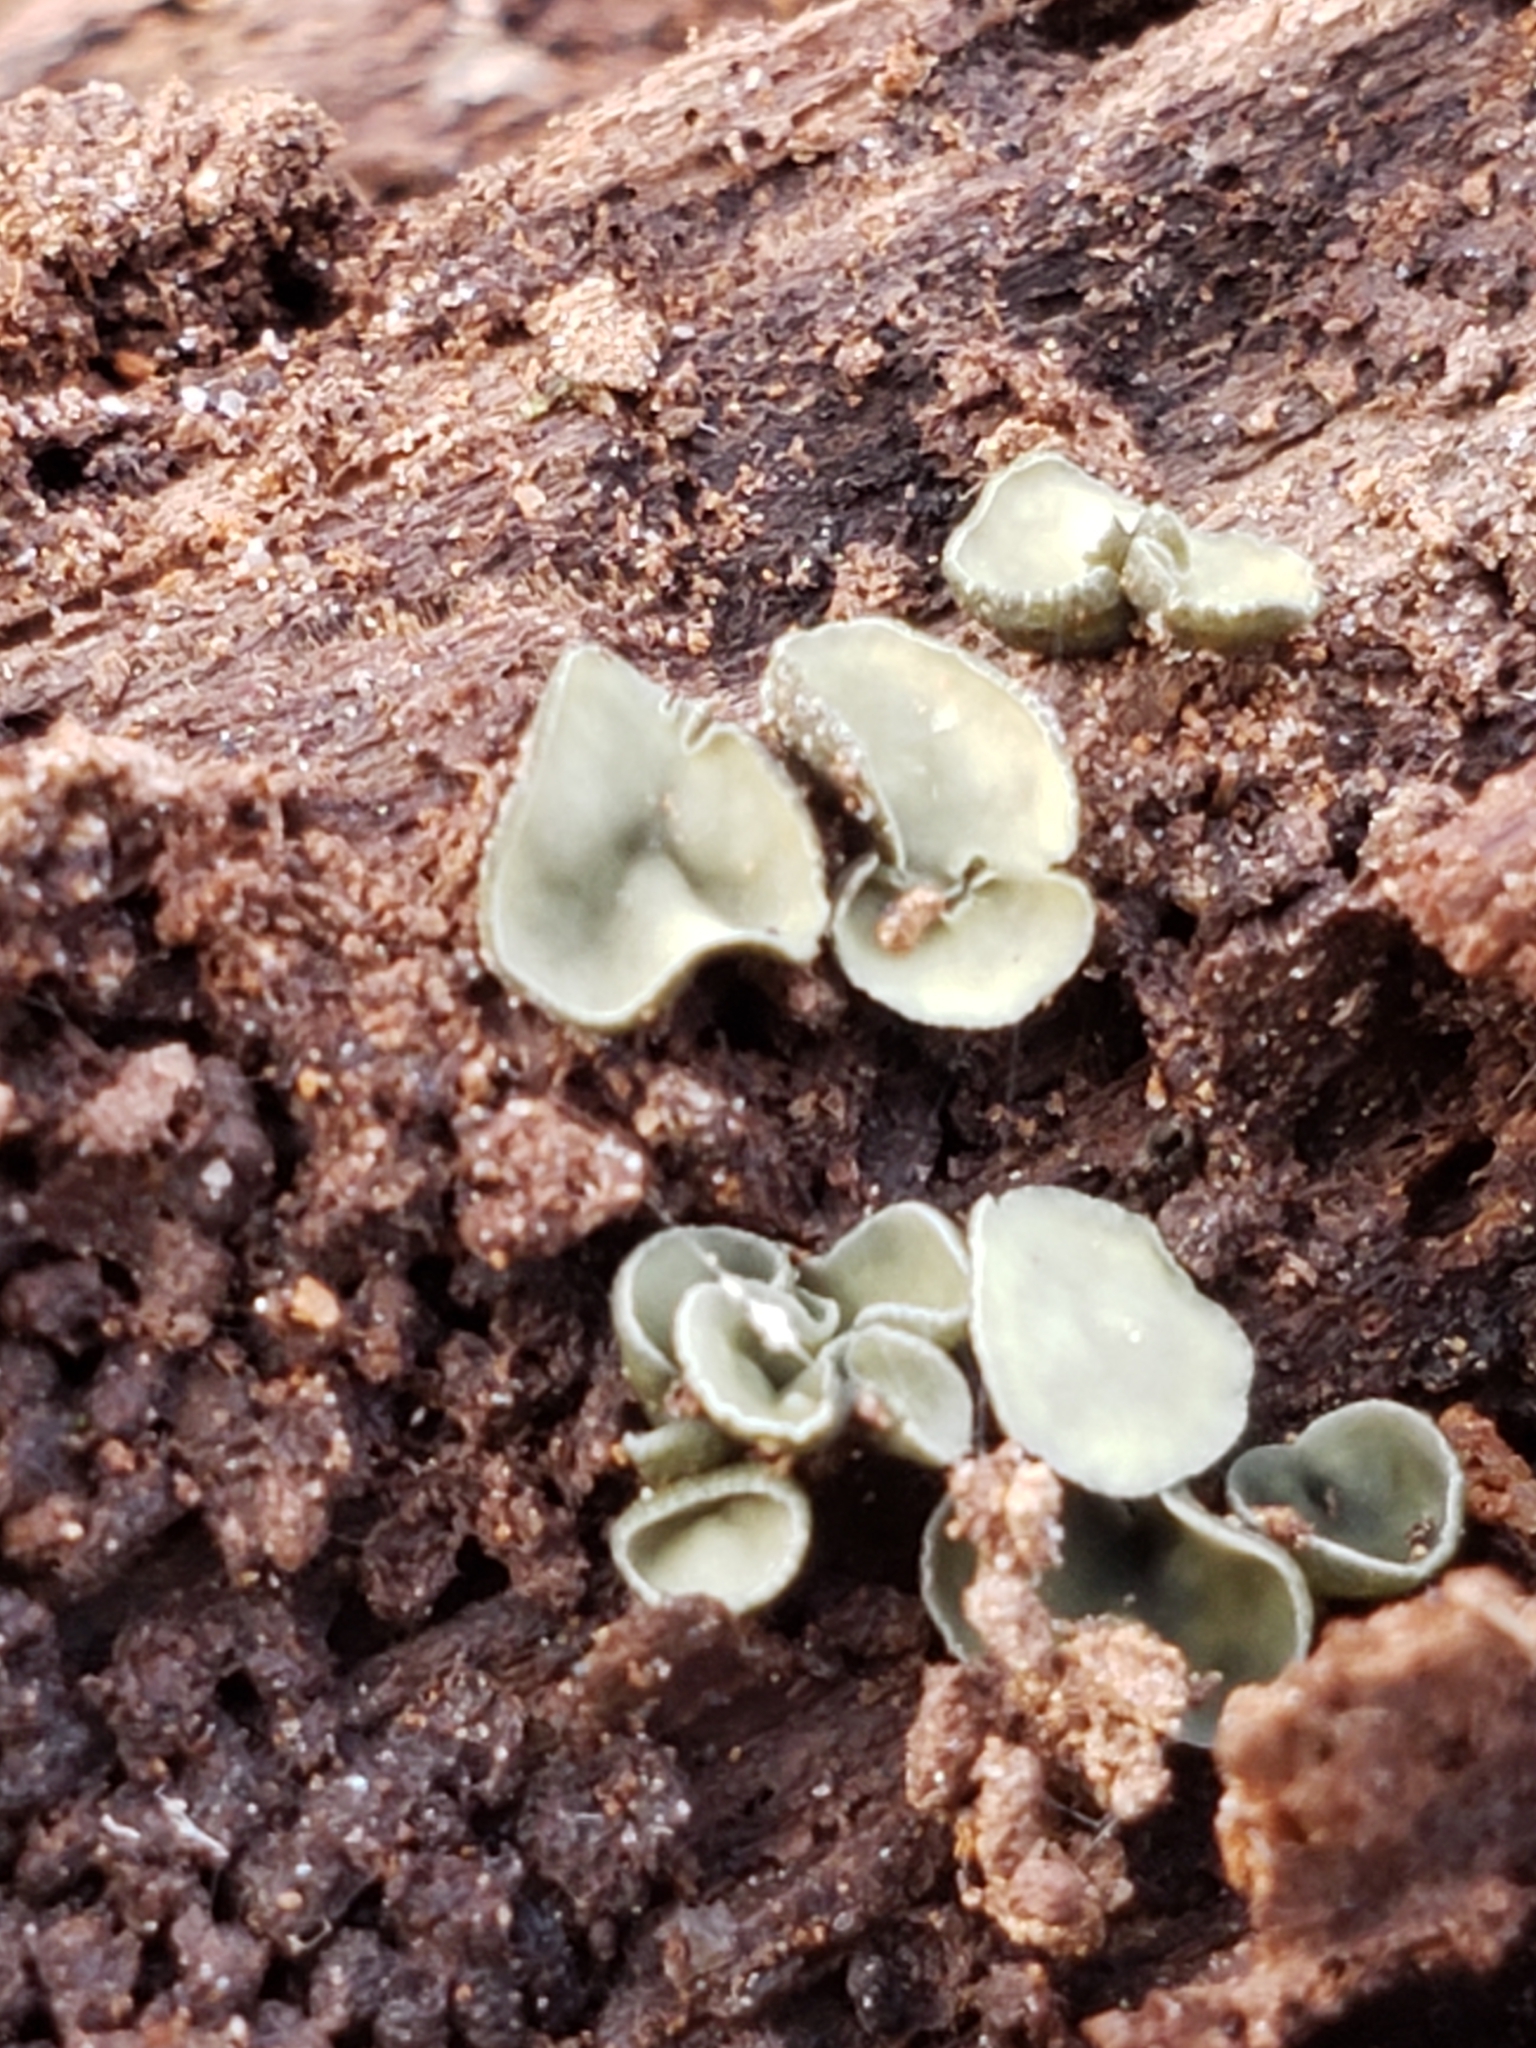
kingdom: Fungi
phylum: Ascomycota
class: Leotiomycetes
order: Helotiales
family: Chlorospleniaceae
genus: Chlorosplenium
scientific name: Chlorosplenium chlora
